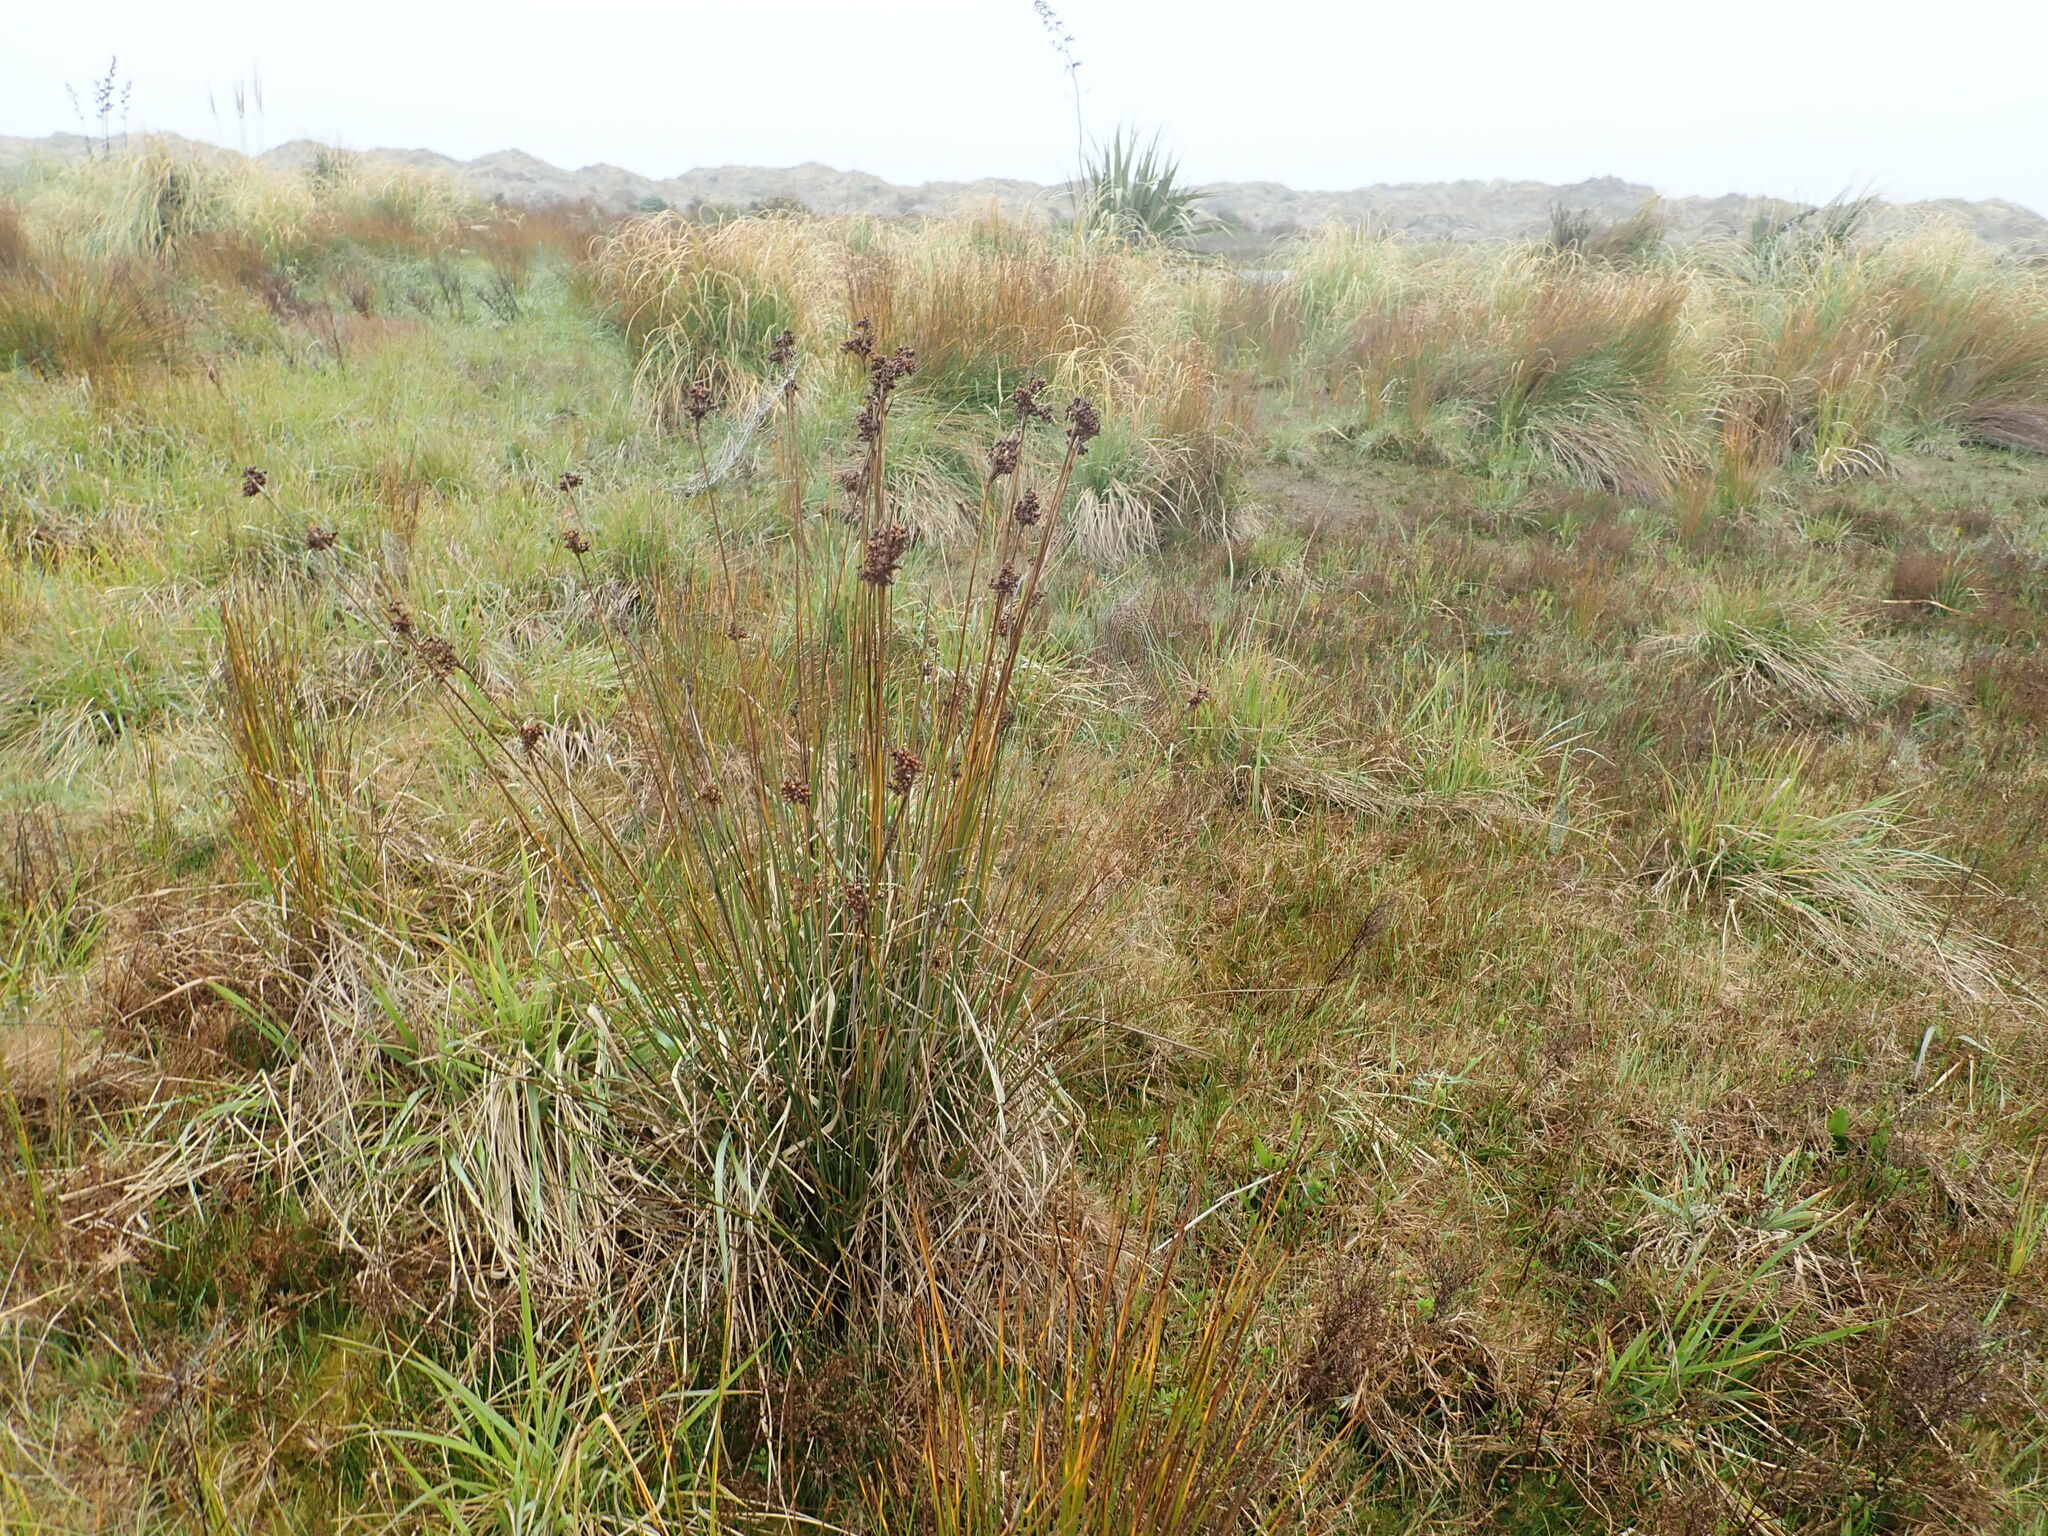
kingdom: Plantae
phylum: Tracheophyta
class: Liliopsida
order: Poales
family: Juncaceae
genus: Juncus
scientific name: Juncus acutus
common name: Sharp rush
